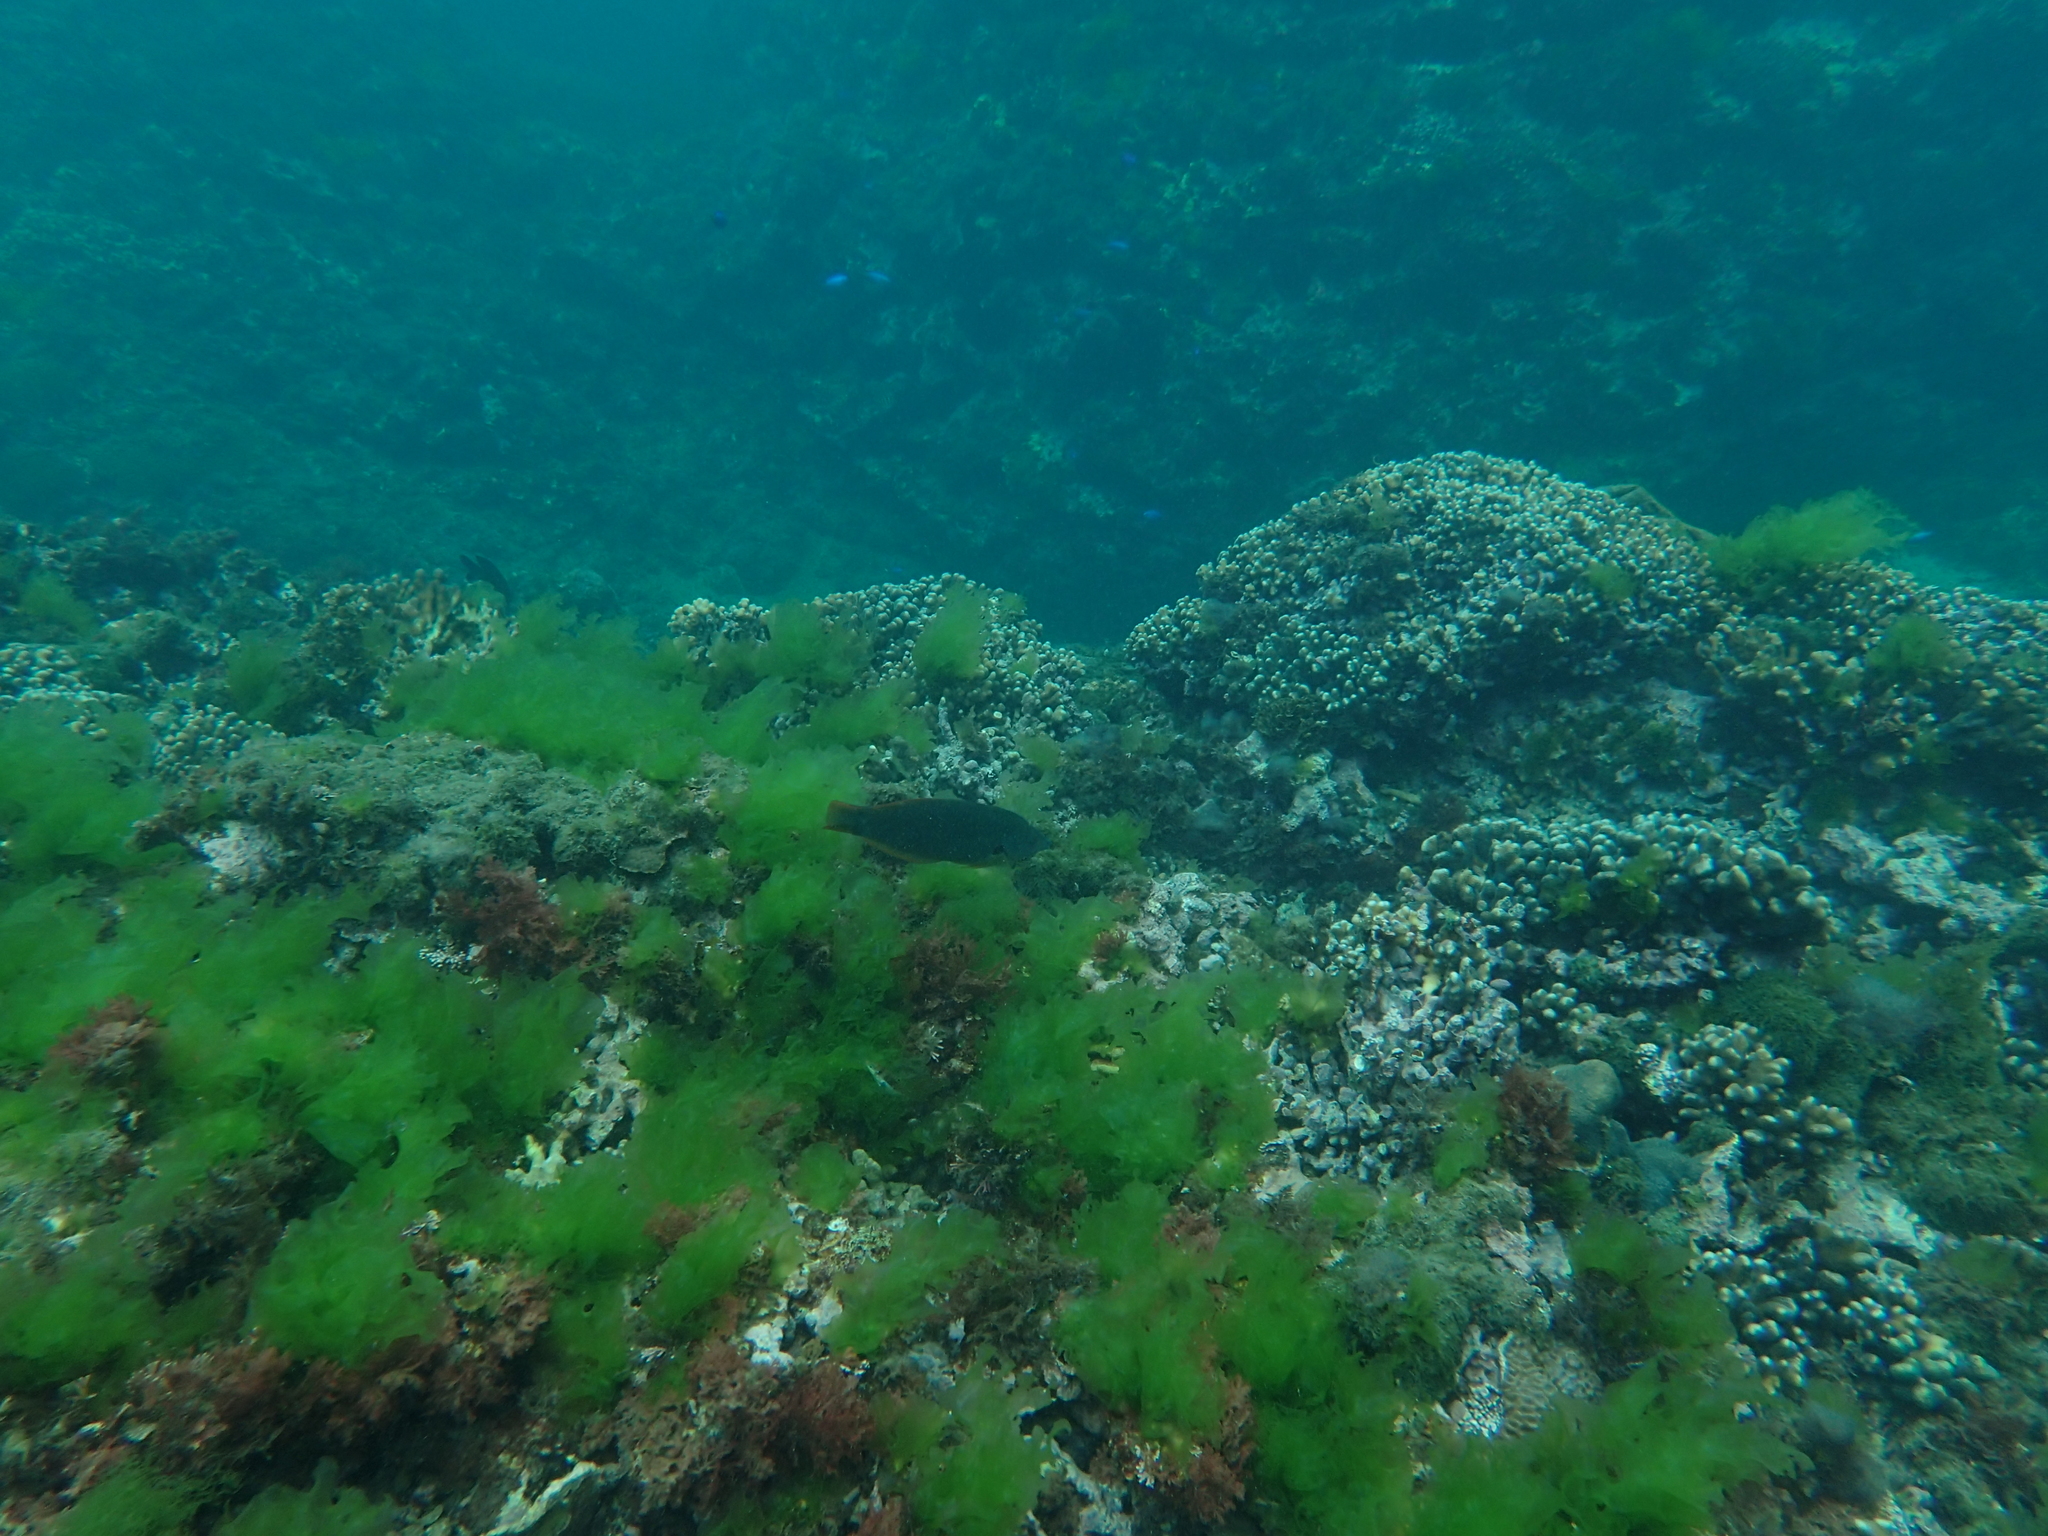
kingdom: Animalia
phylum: Chordata
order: Perciformes
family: Labridae
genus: Halichoeres
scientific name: Halichoeres melanochir
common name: Black wrasse
